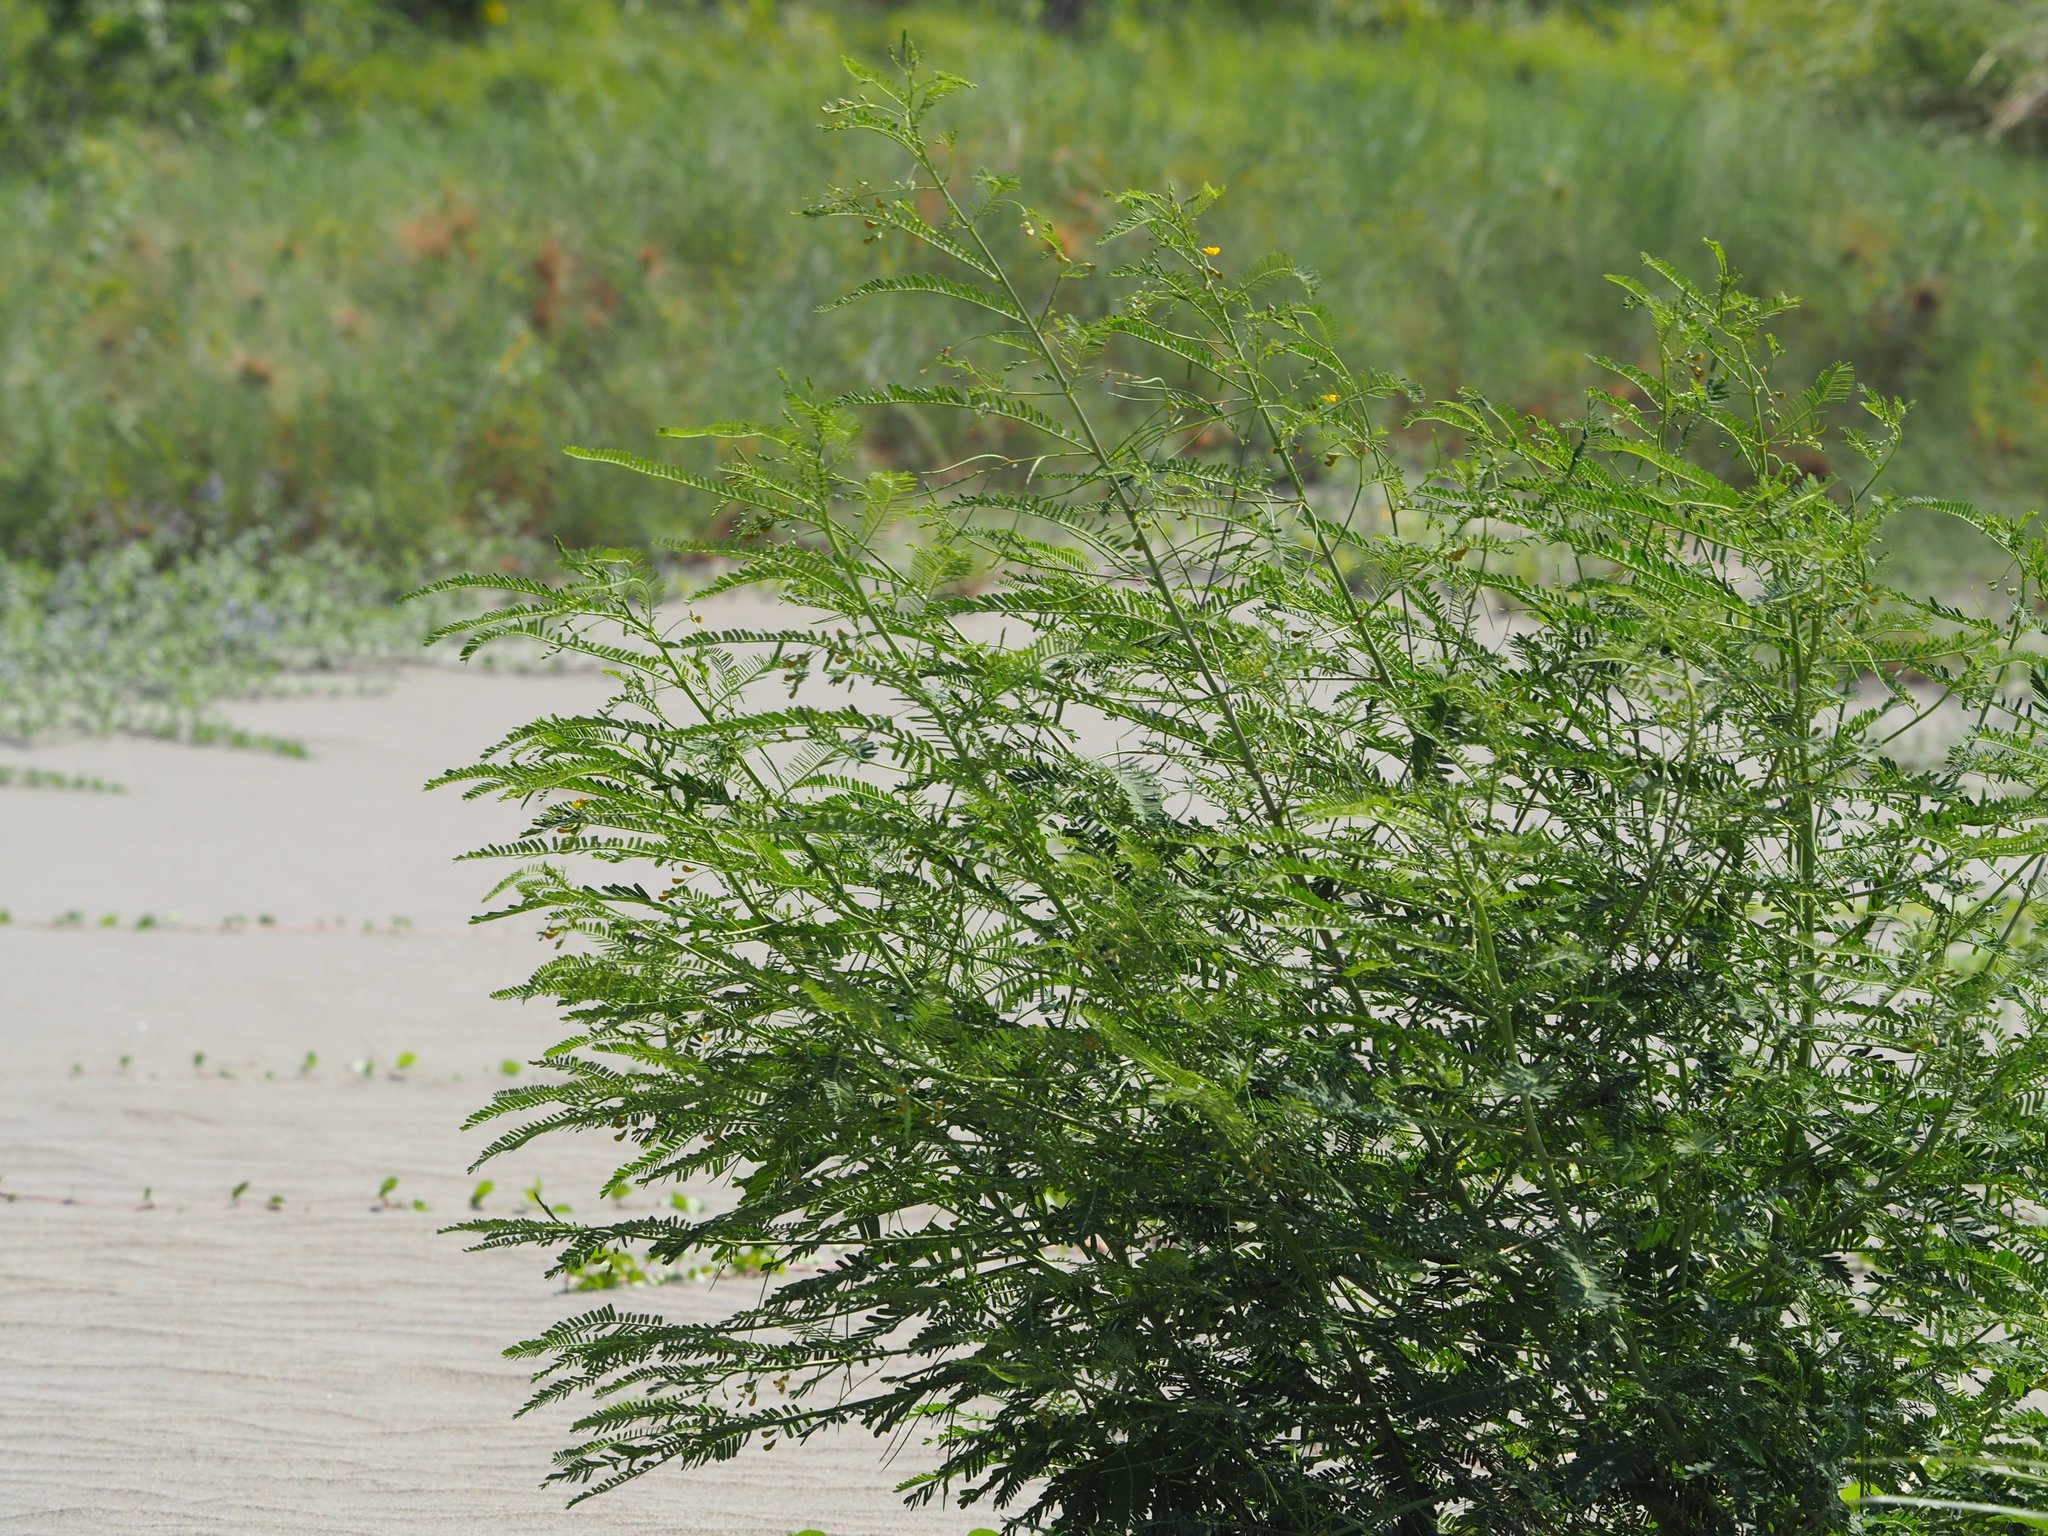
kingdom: Plantae
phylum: Tracheophyta
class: Magnoliopsida
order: Fabales
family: Fabaceae
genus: Sesbania
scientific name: Sesbania cannabina
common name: Canicha
